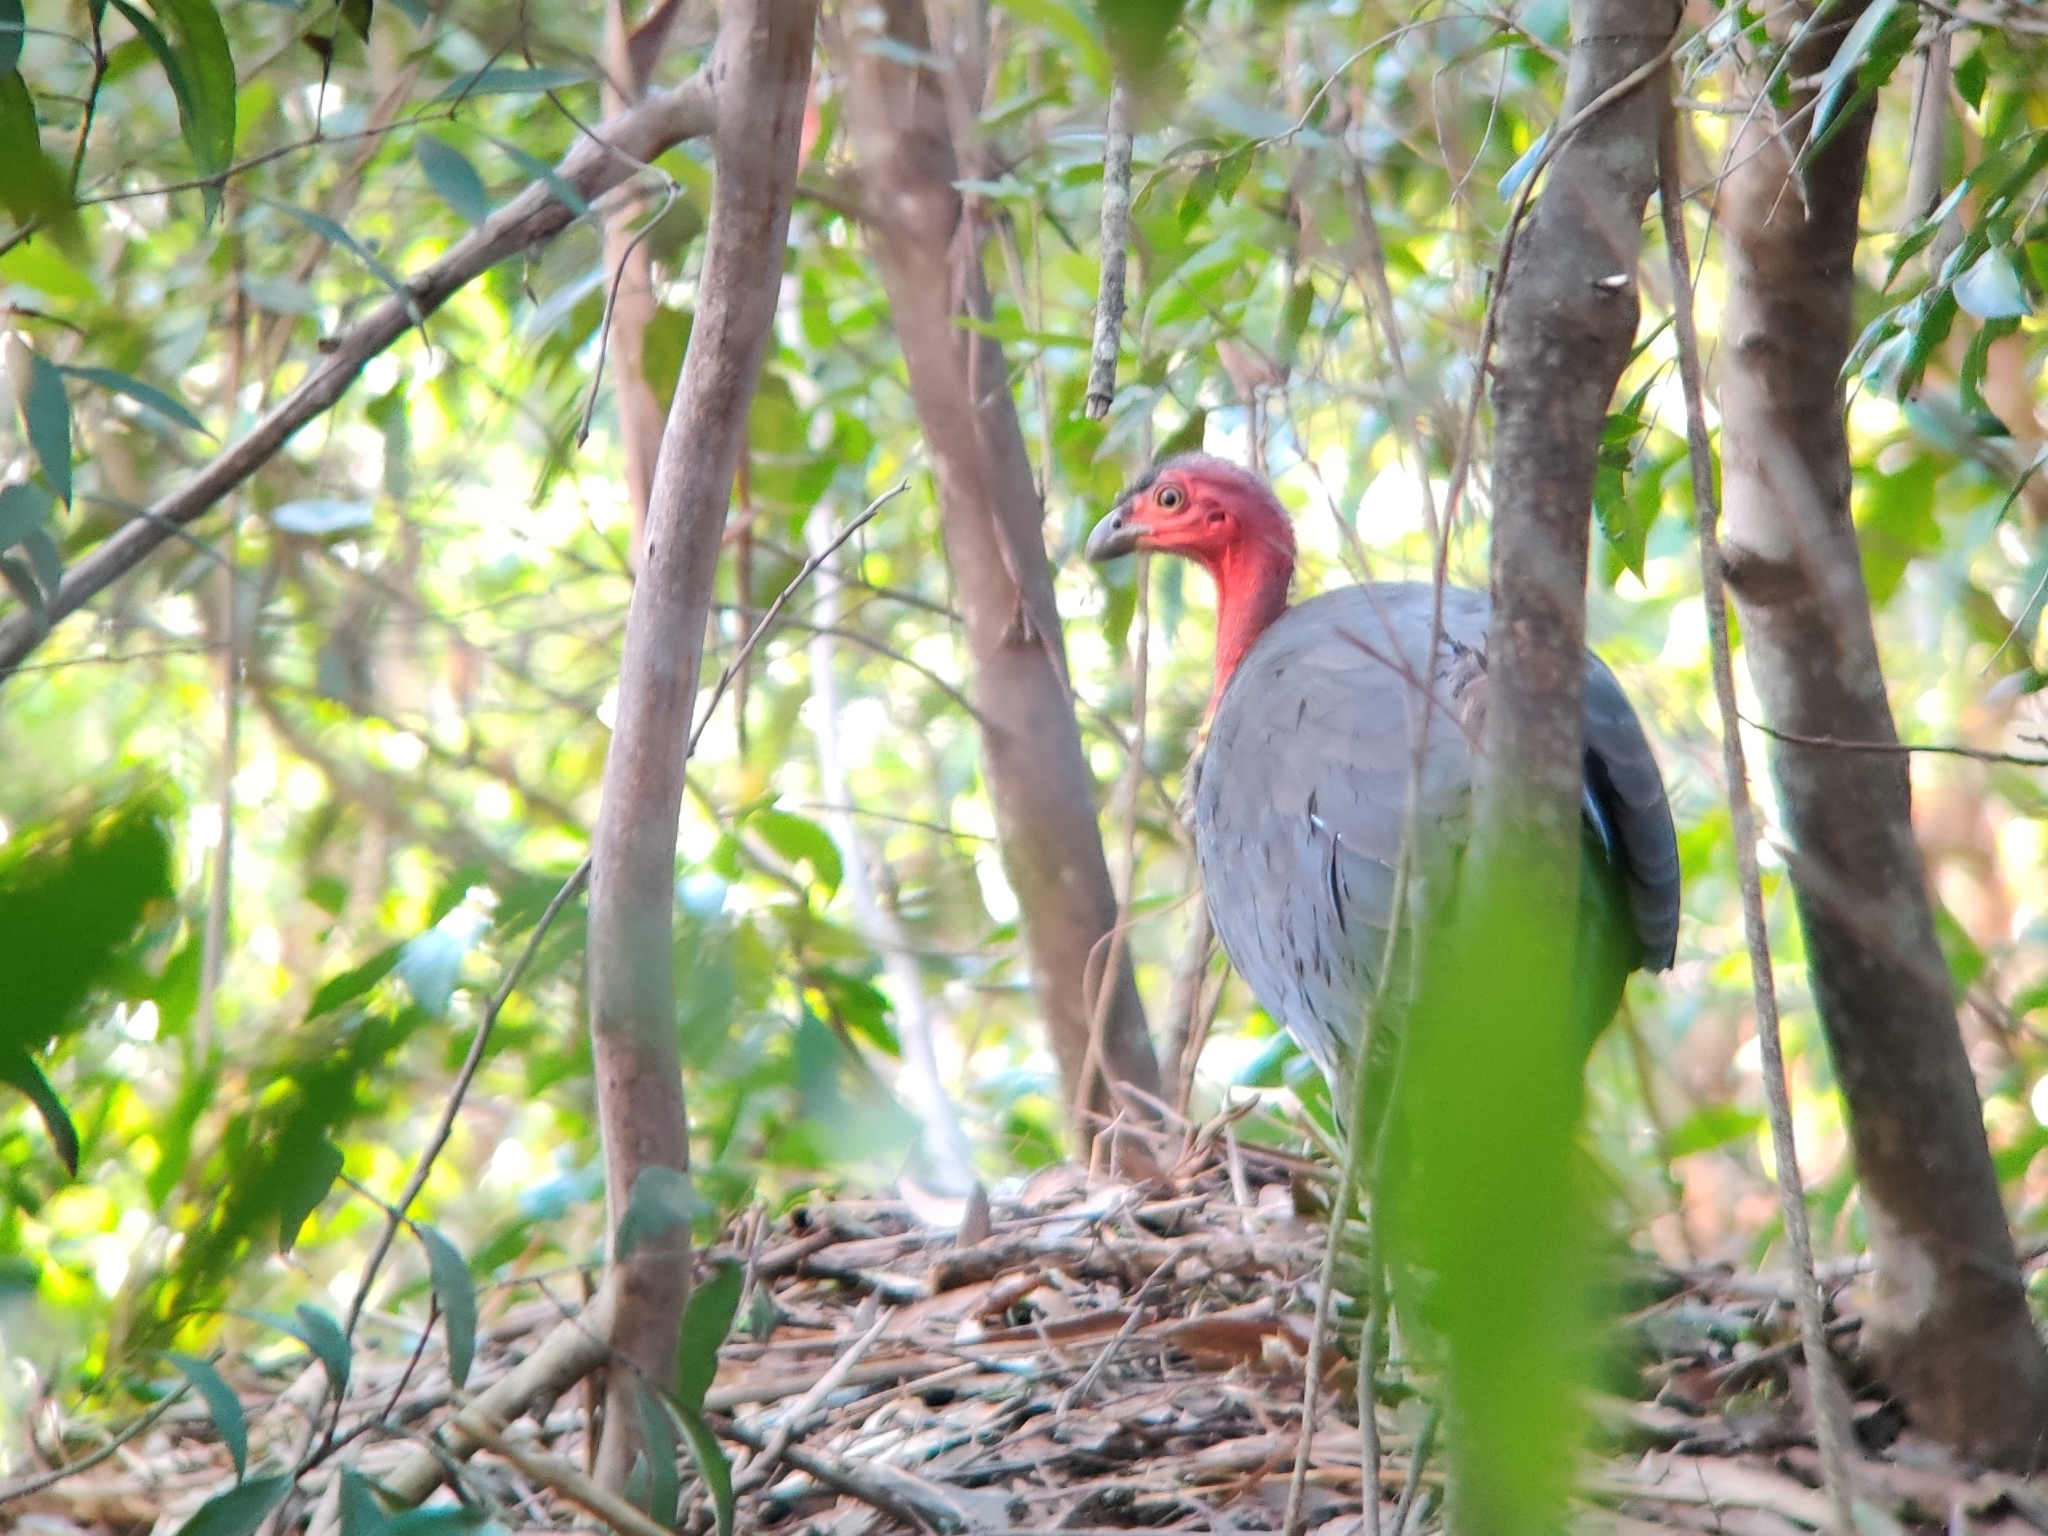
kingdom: Animalia
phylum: Chordata
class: Aves
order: Galliformes
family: Megapodiidae
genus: Alectura
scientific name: Alectura lathami
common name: Australian brushturkey
